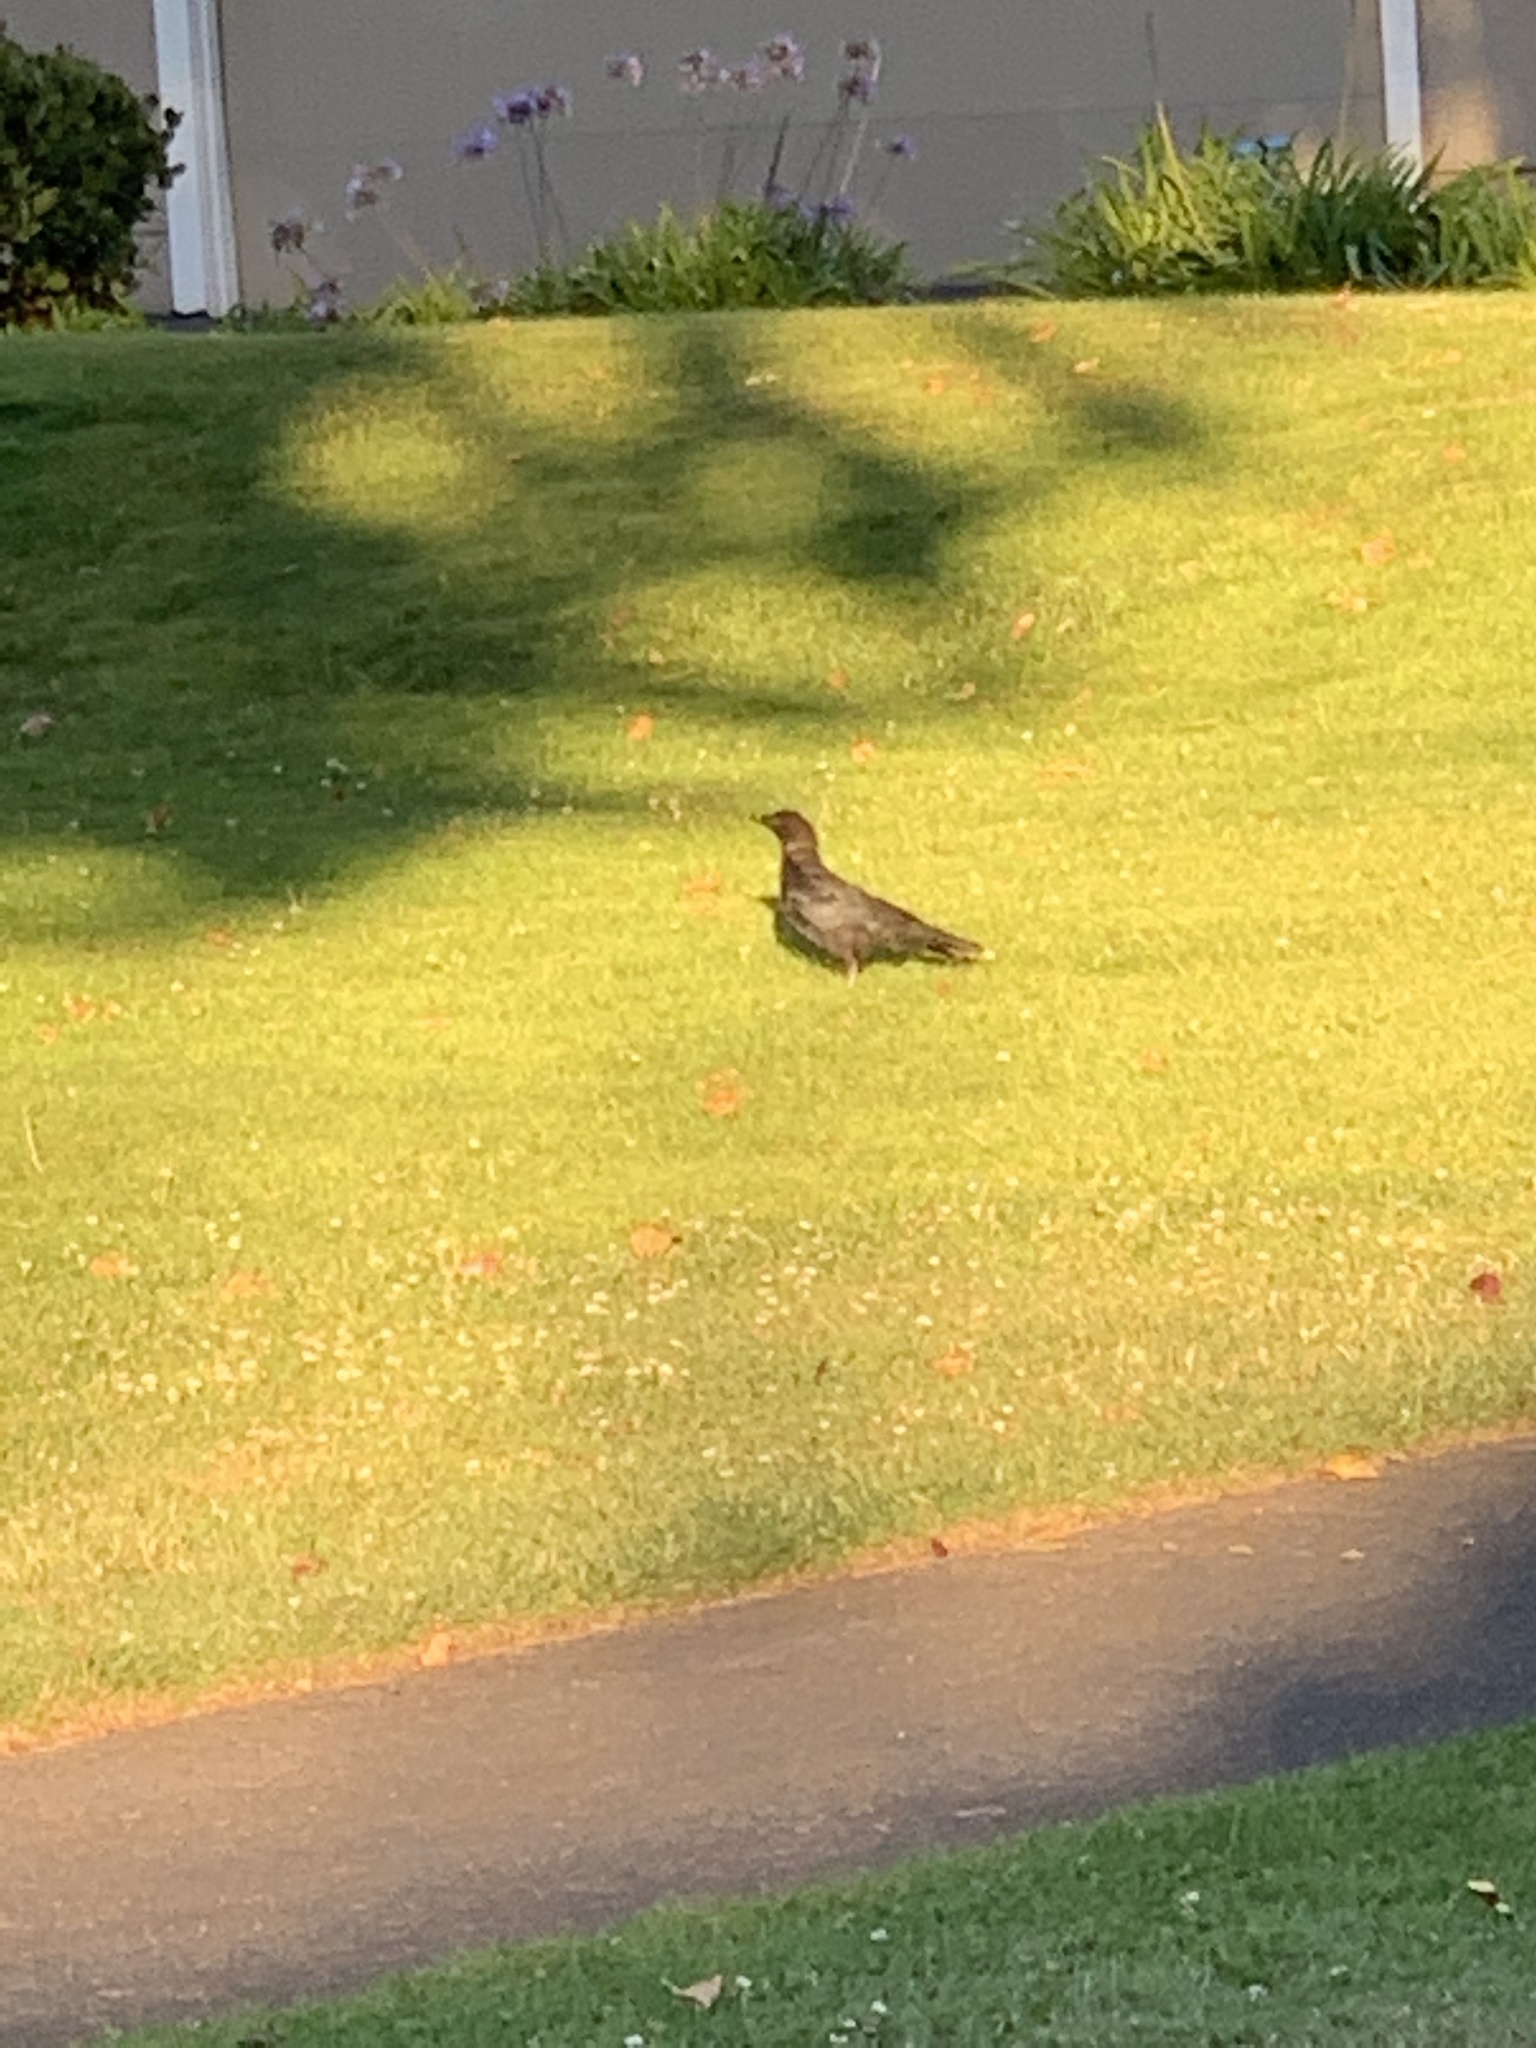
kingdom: Animalia
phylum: Chordata
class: Aves
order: Passeriformes
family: Corvidae
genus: Corvus
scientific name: Corvus brachyrhynchos
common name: American crow
